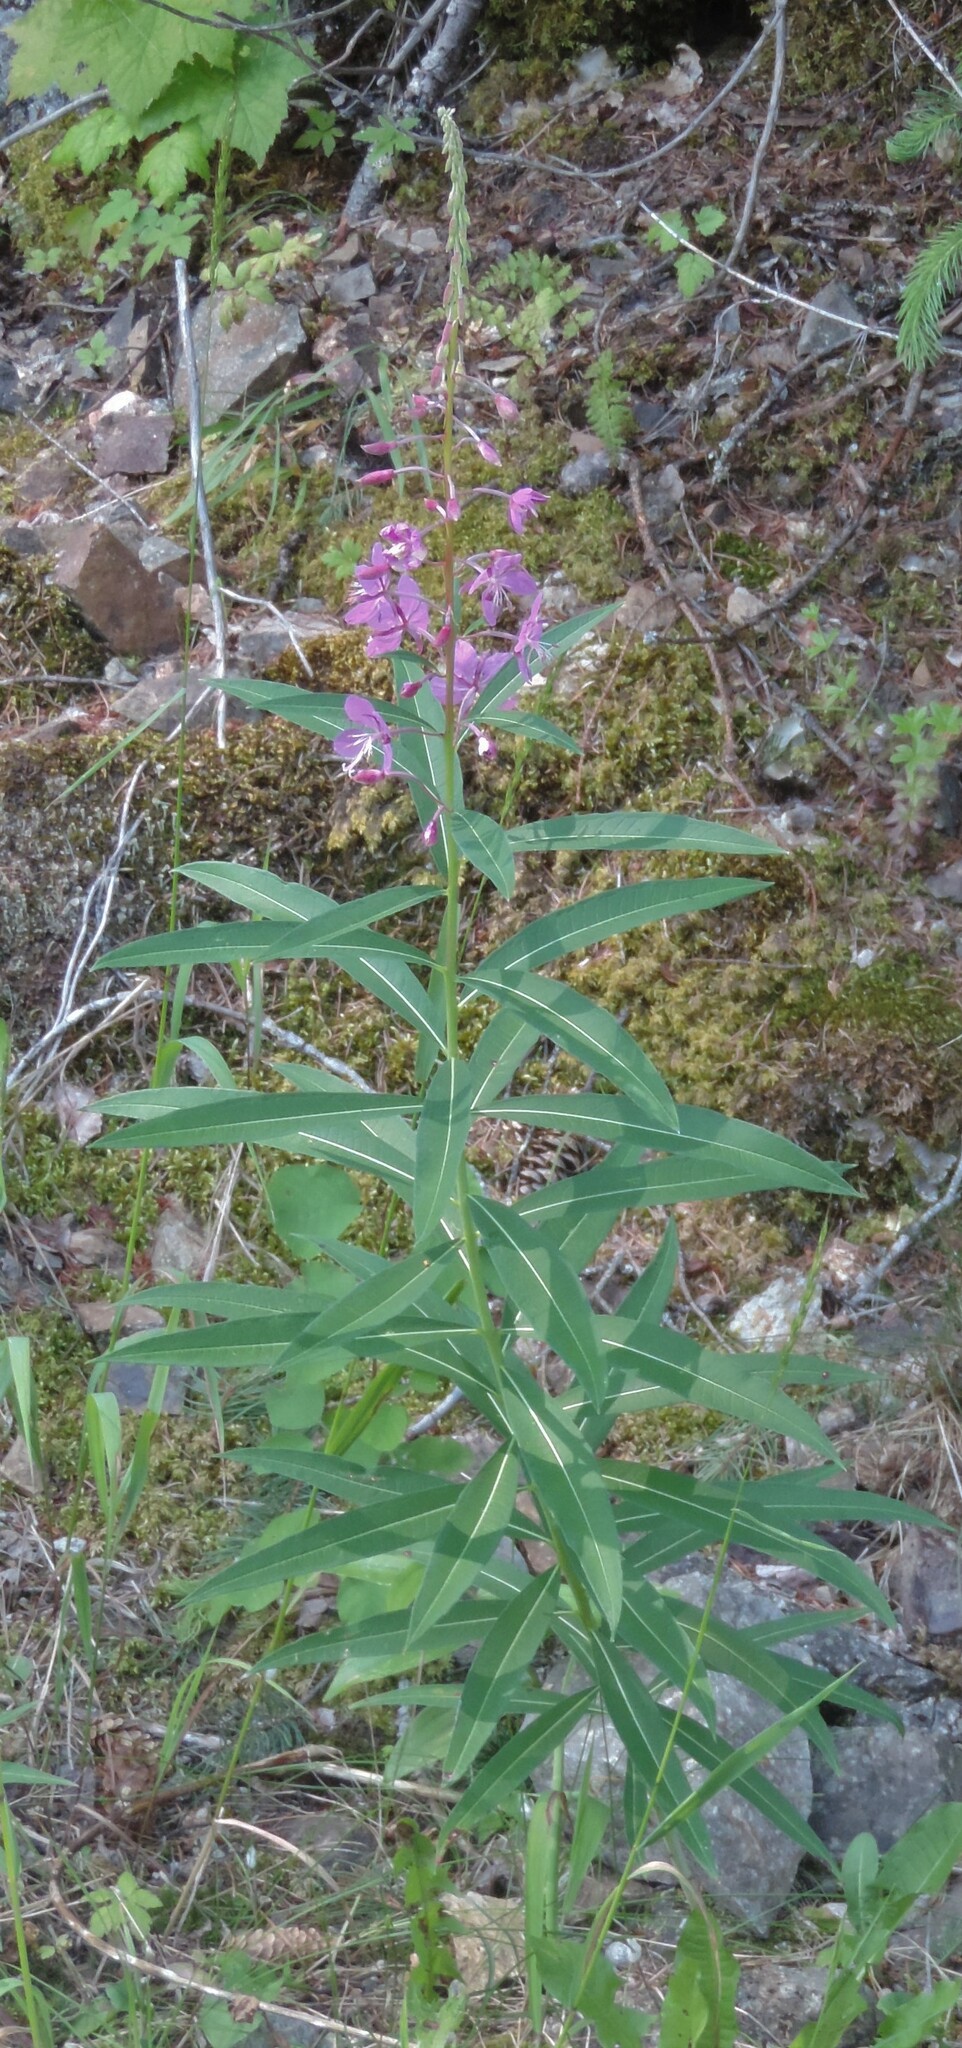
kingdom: Plantae
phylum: Tracheophyta
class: Magnoliopsida
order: Myrtales
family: Onagraceae
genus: Chamaenerion
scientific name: Chamaenerion angustifolium
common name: Fireweed
